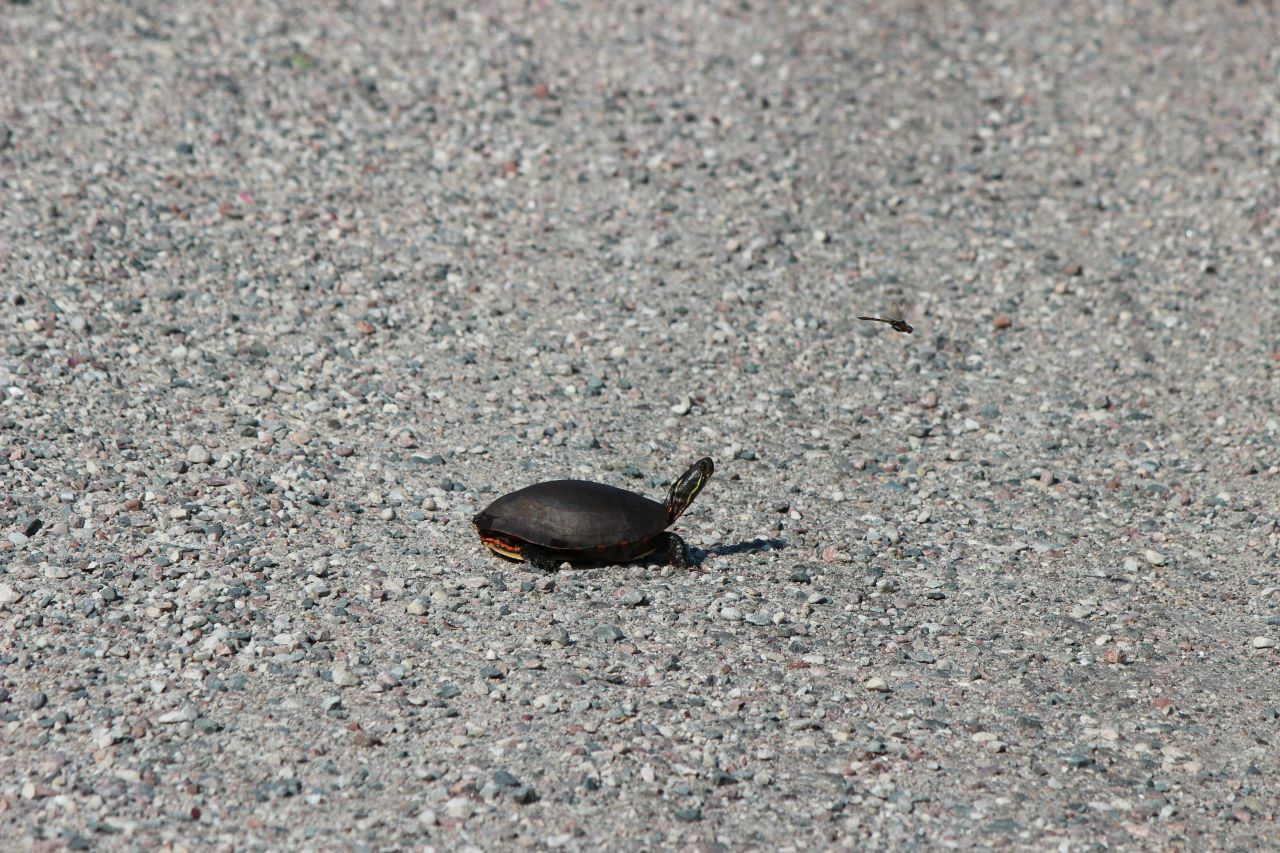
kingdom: Animalia
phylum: Chordata
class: Testudines
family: Emydidae
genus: Chrysemys
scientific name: Chrysemys picta
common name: Painted turtle
